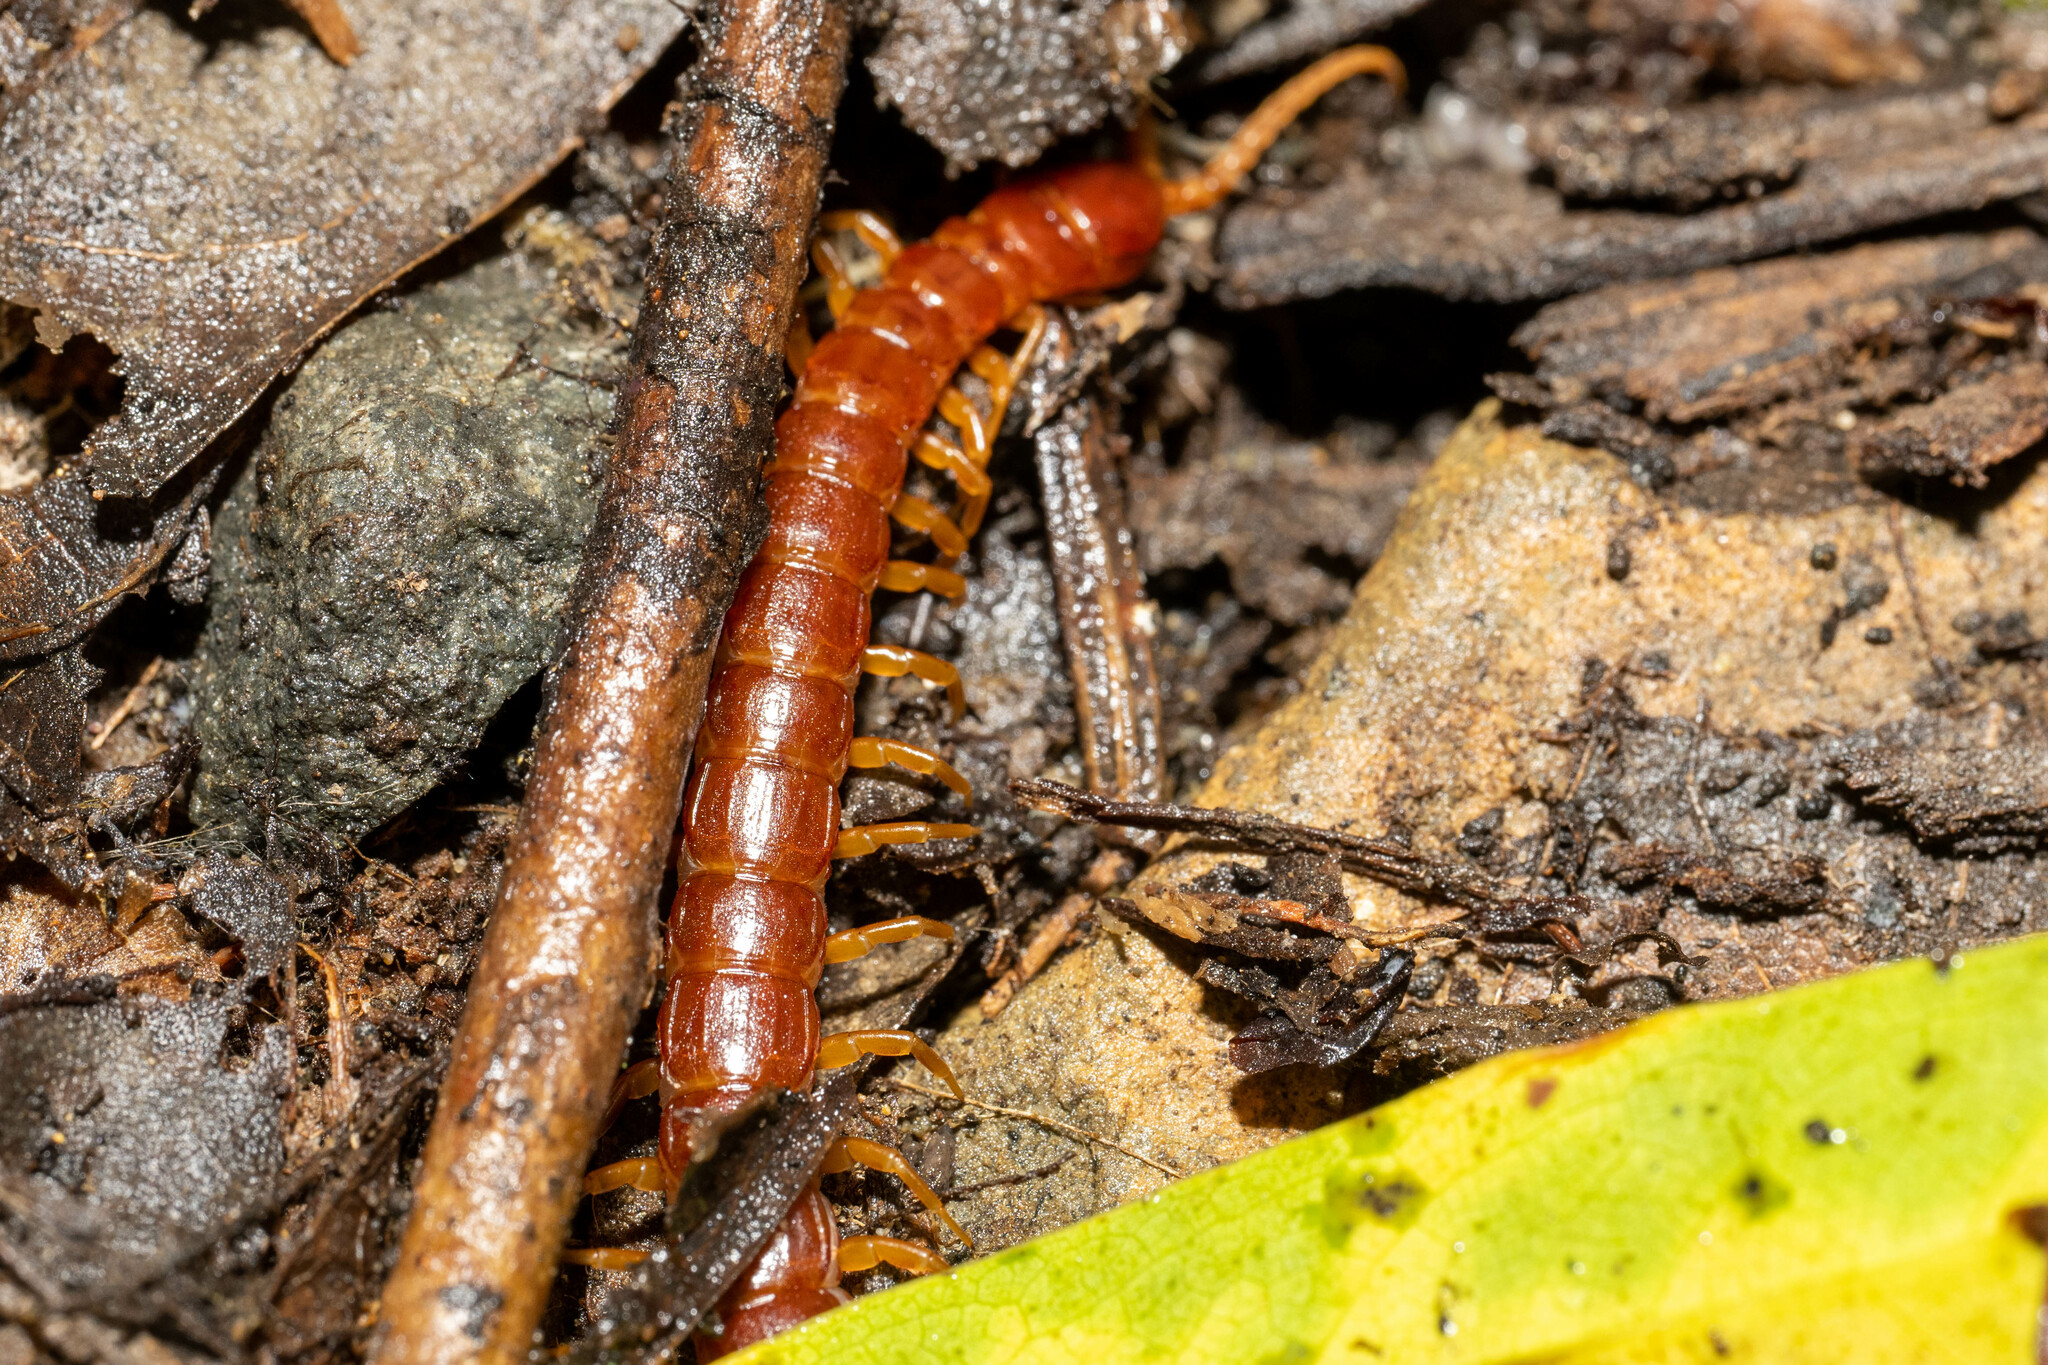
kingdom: Animalia
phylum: Arthropoda
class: Chilopoda
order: Scolopendromorpha
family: Scolopocryptopidae
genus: Scolopocryptops
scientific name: Scolopocryptops spinicaudus
